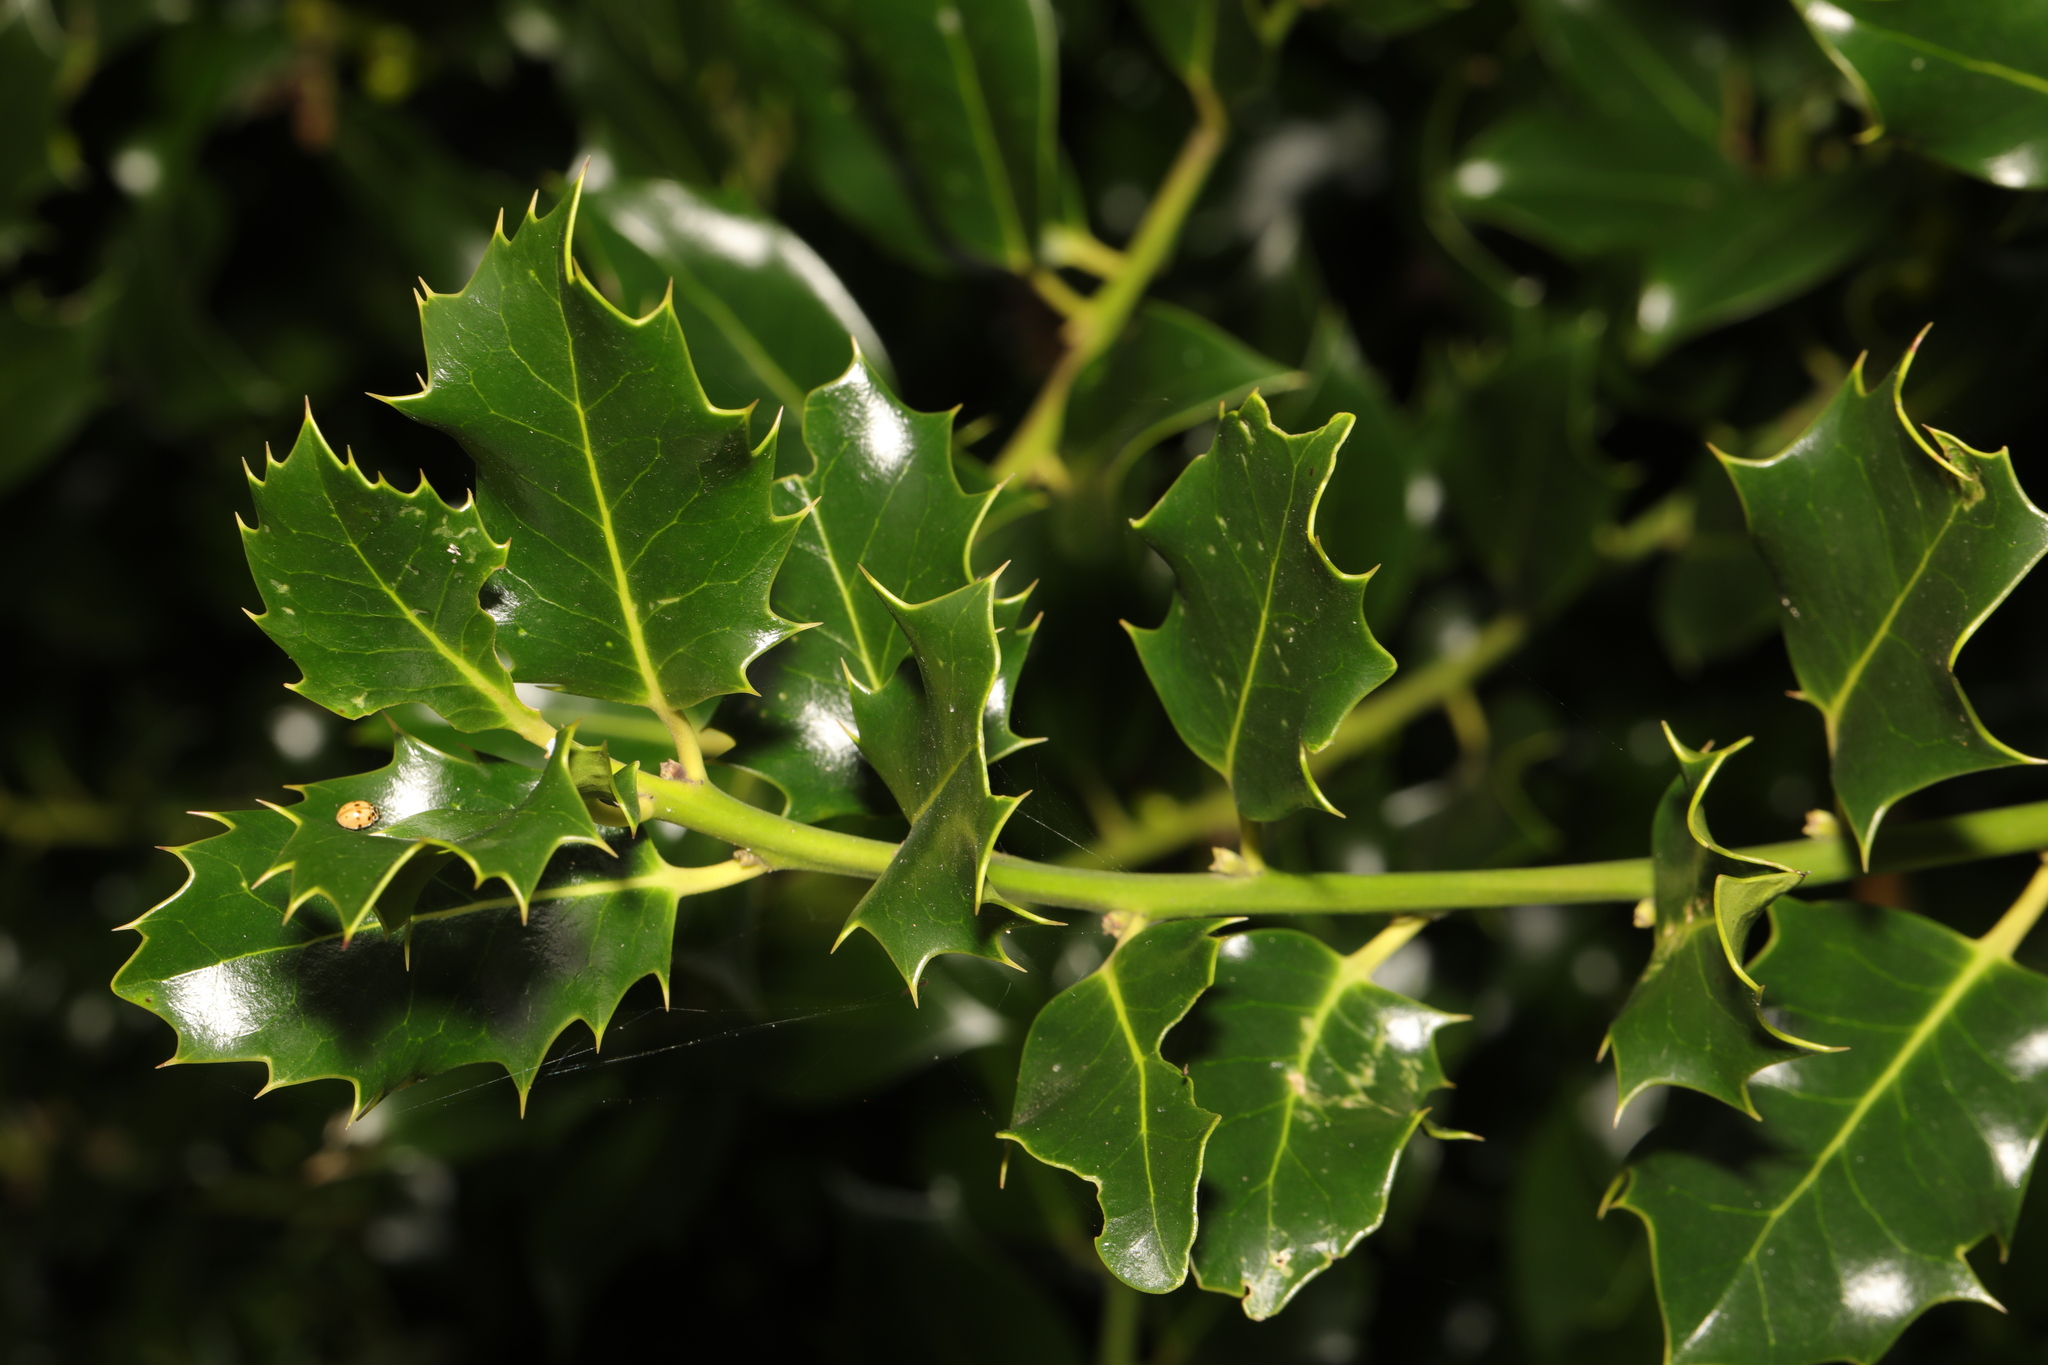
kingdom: Plantae
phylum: Tracheophyta
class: Magnoliopsida
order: Aquifoliales
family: Aquifoliaceae
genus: Ilex
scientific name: Ilex aquifolium
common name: English holly
